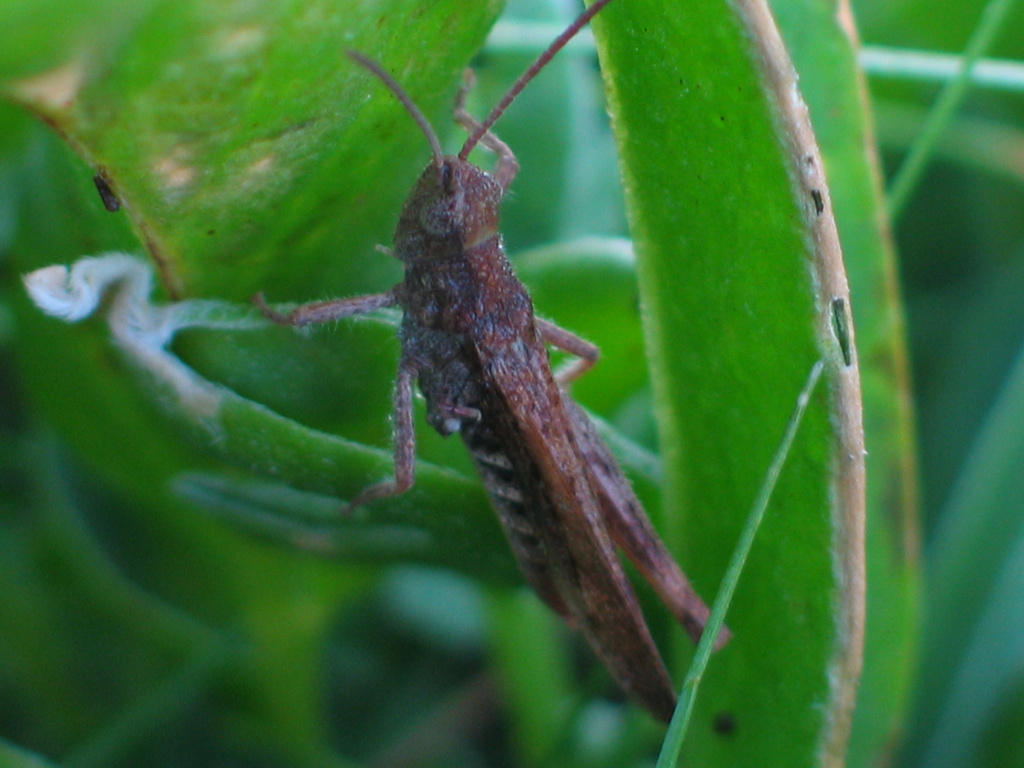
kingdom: Animalia
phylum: Arthropoda
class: Insecta
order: Orthoptera
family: Acrididae
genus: Chorthippus
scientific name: Chorthippus brunneus
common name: Field grasshopper
